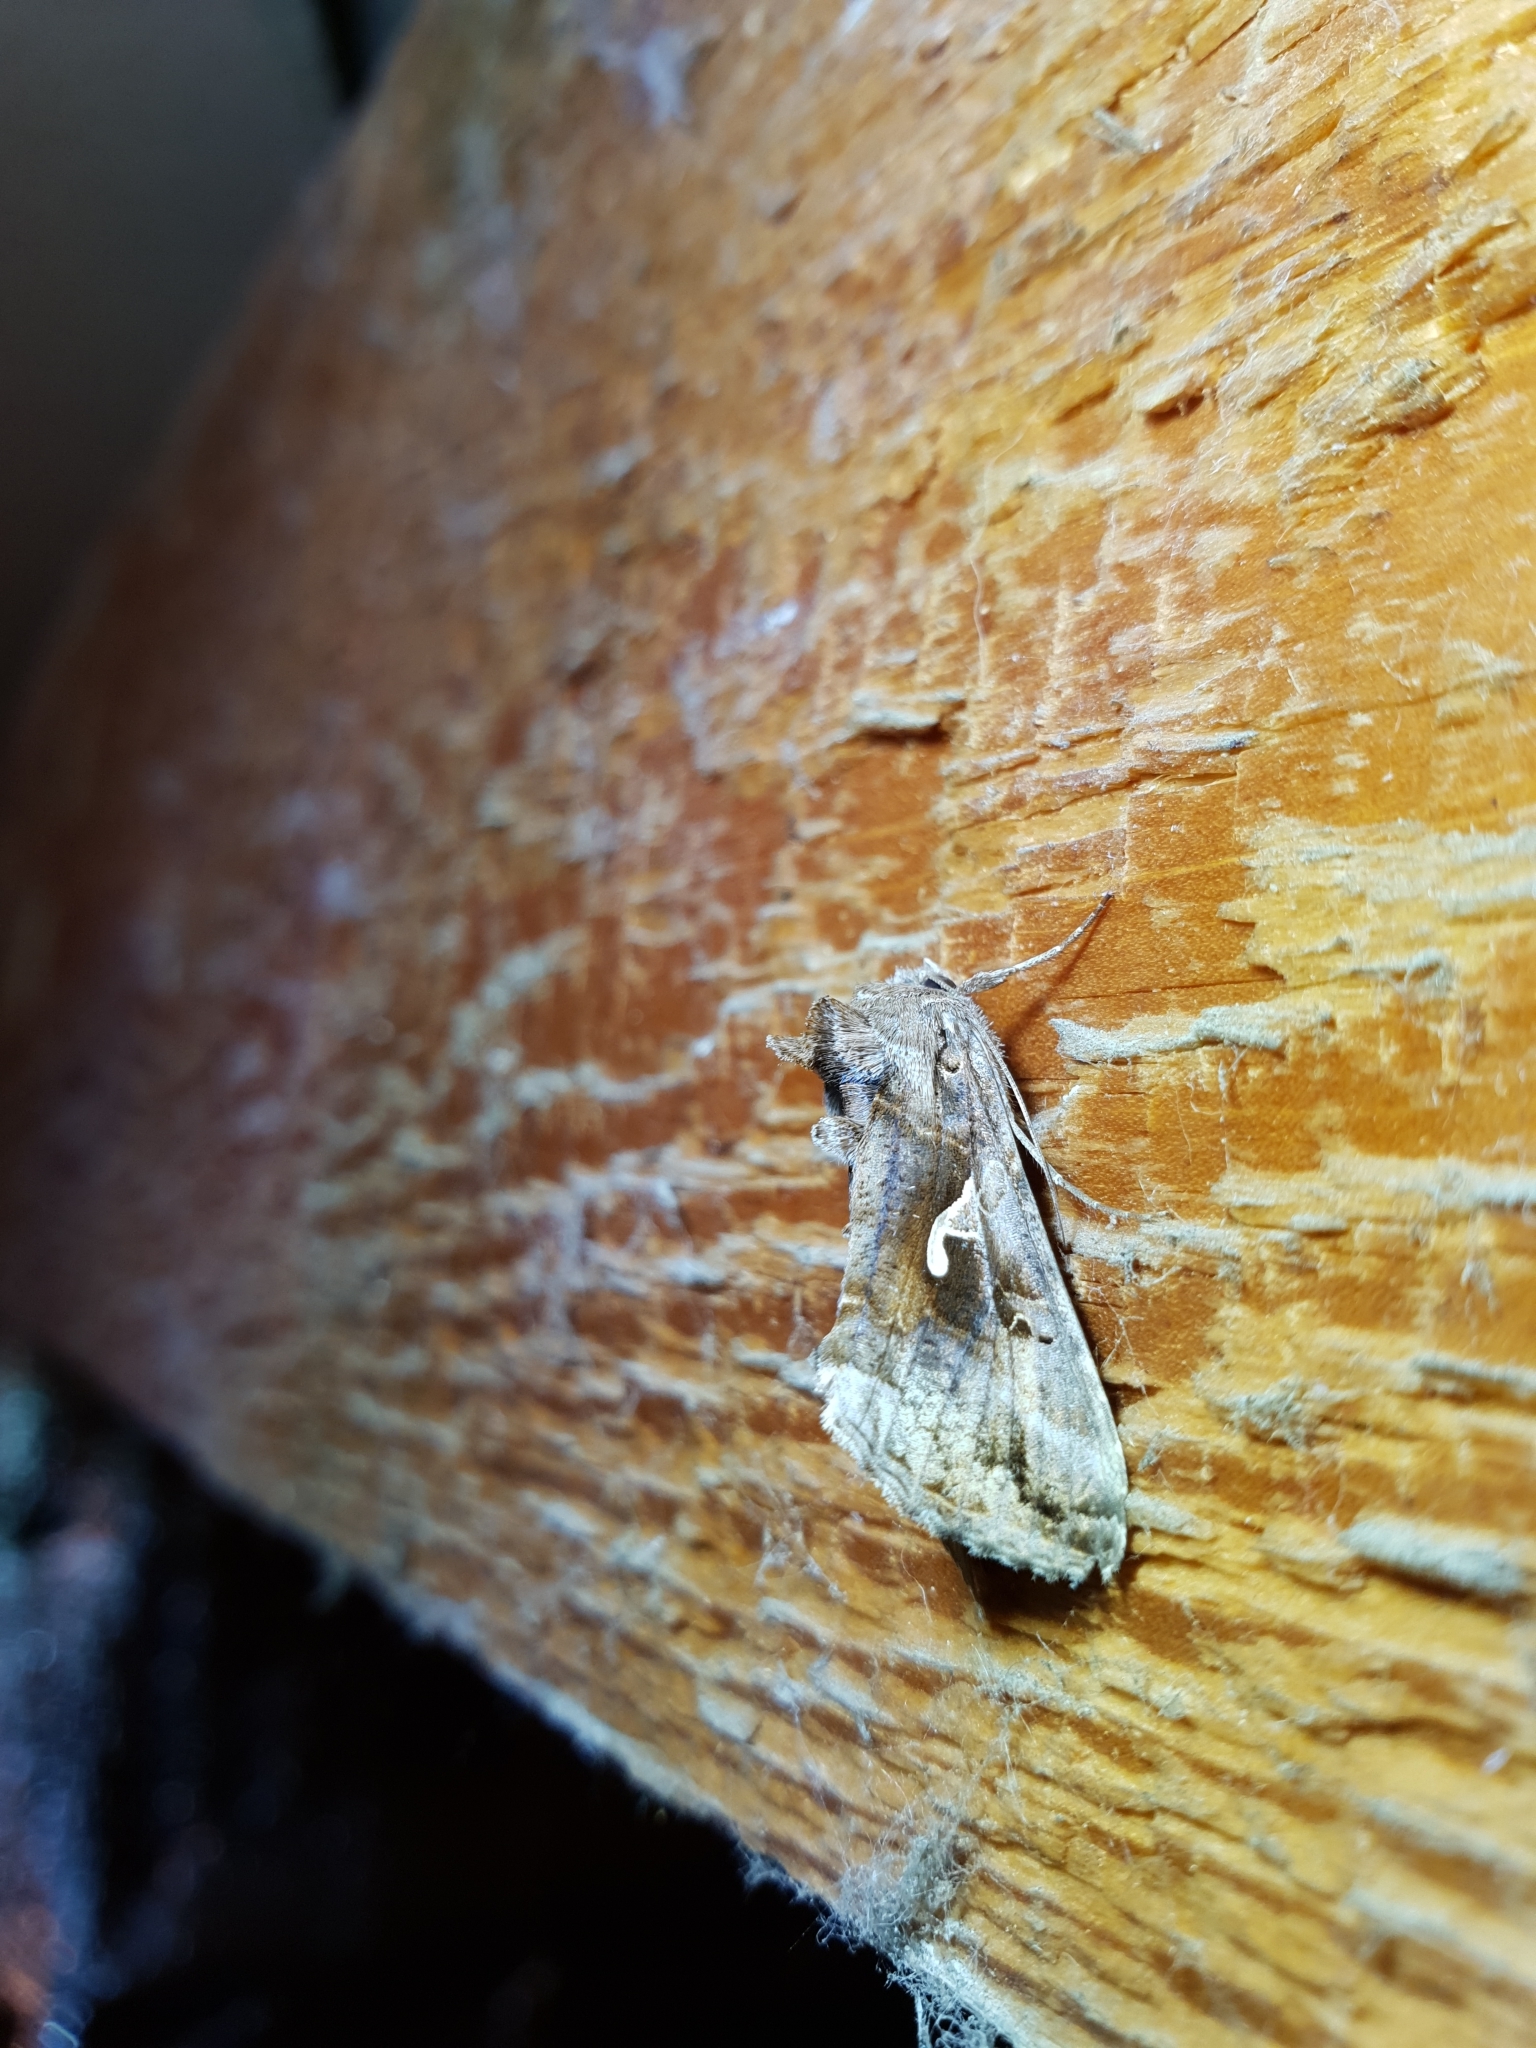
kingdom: Animalia
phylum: Arthropoda
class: Insecta
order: Lepidoptera
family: Noctuidae
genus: Autographa
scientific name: Autographa gamma
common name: Silver y
